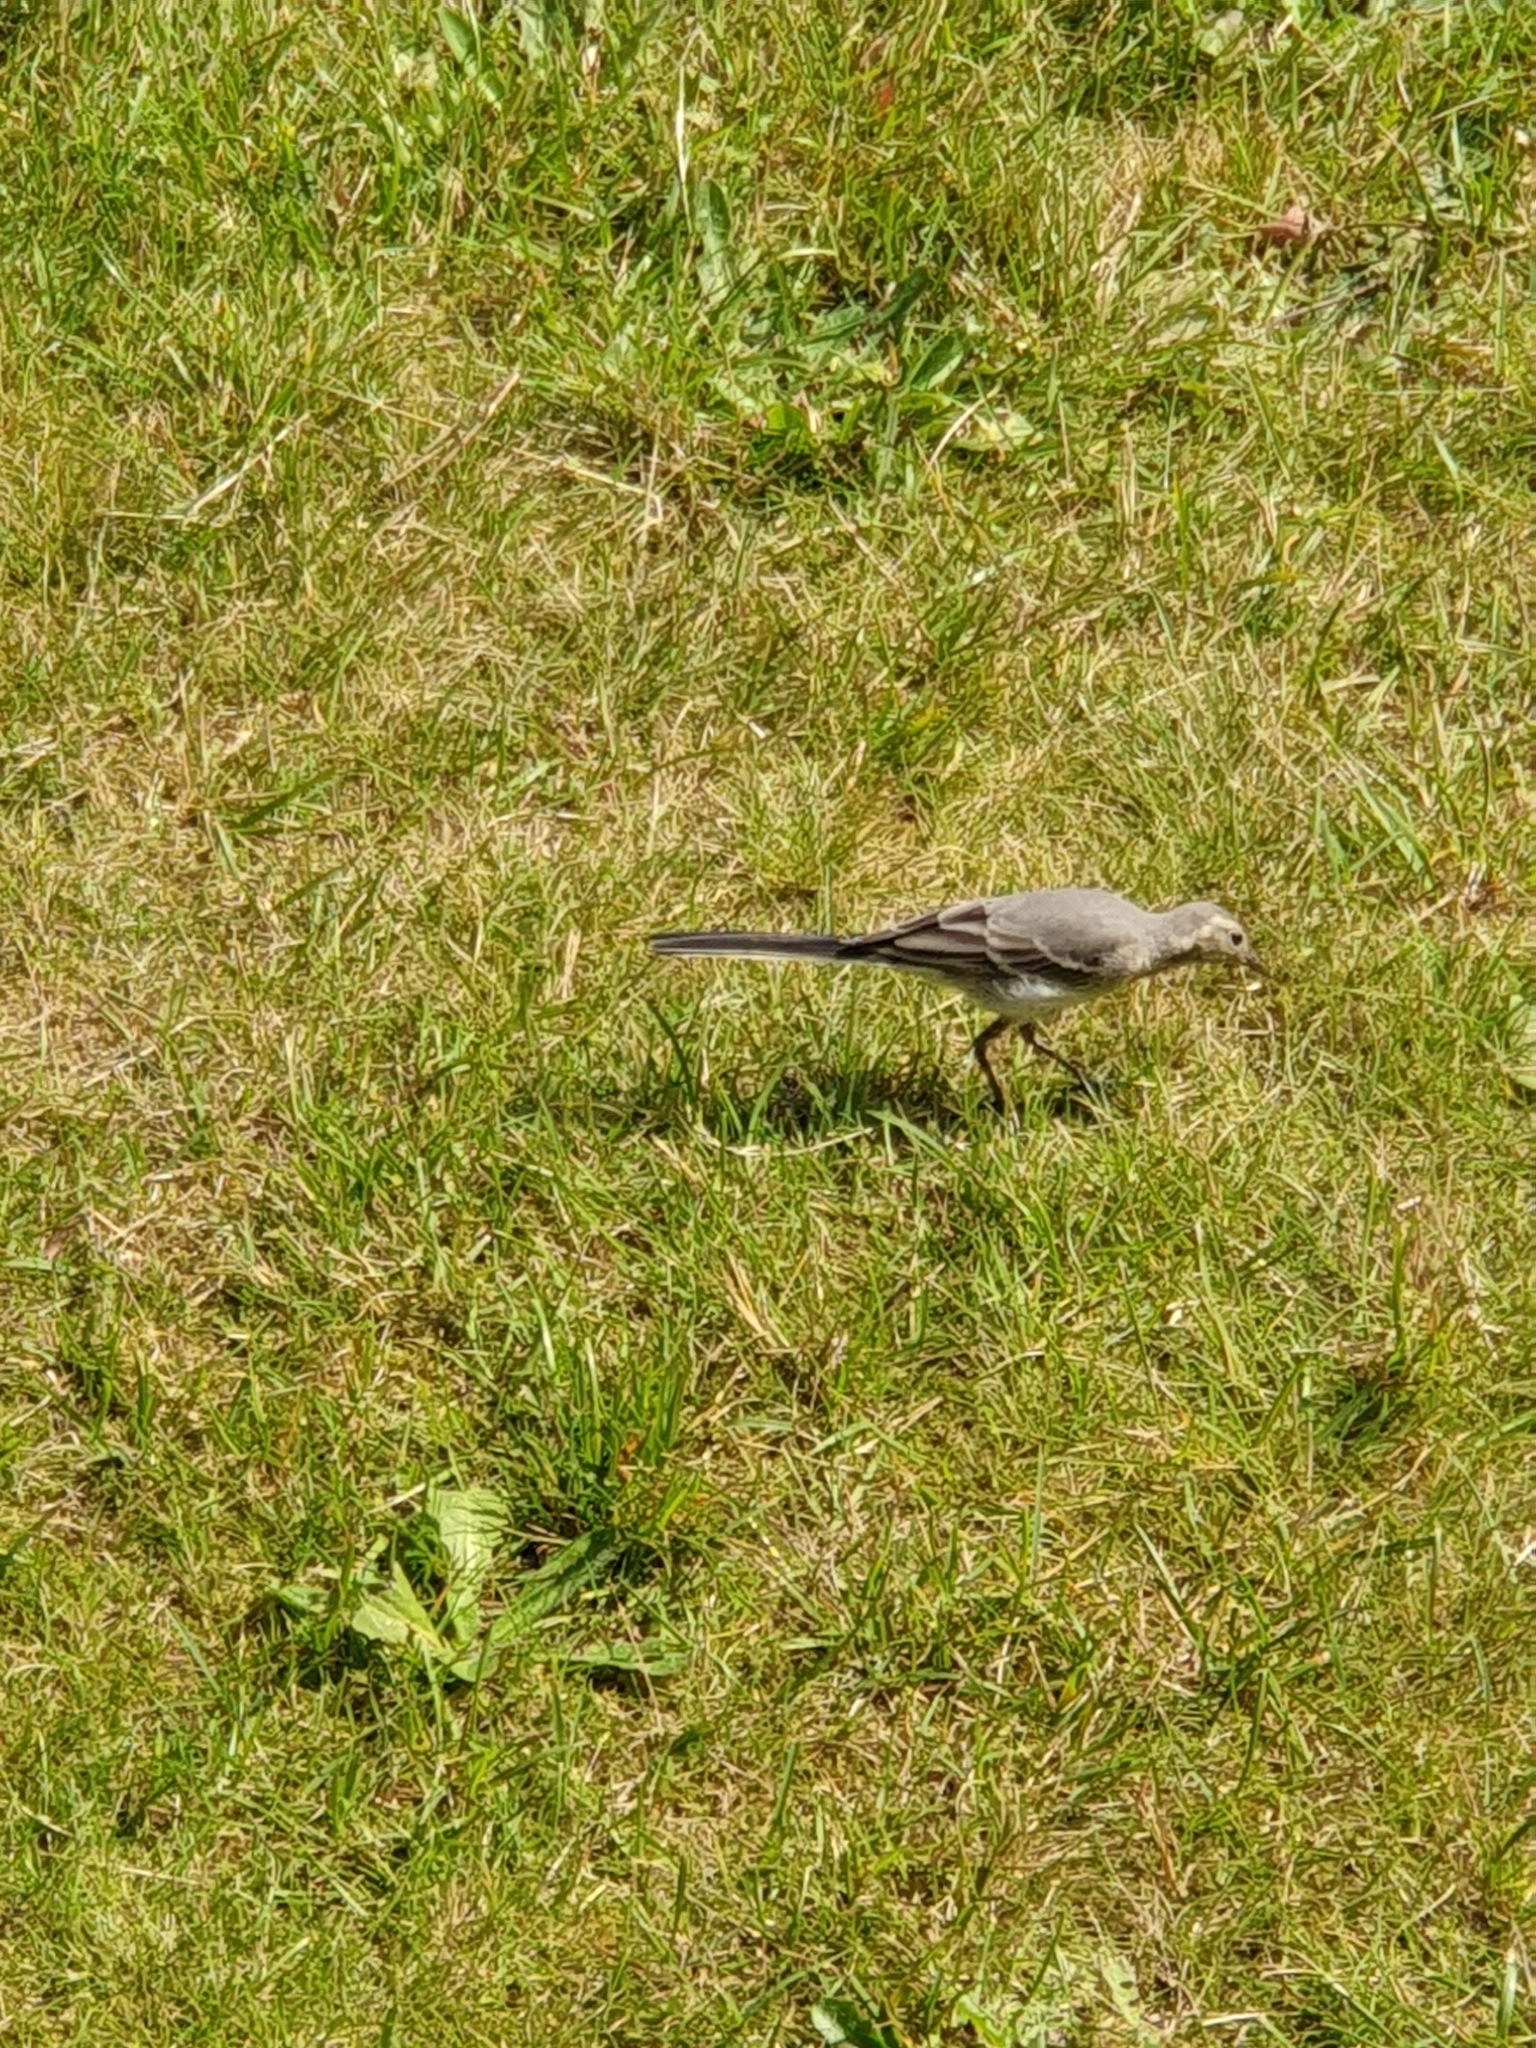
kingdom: Animalia
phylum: Chordata
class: Aves
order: Passeriformes
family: Motacillidae
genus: Motacilla
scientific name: Motacilla alba
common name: White wagtail
